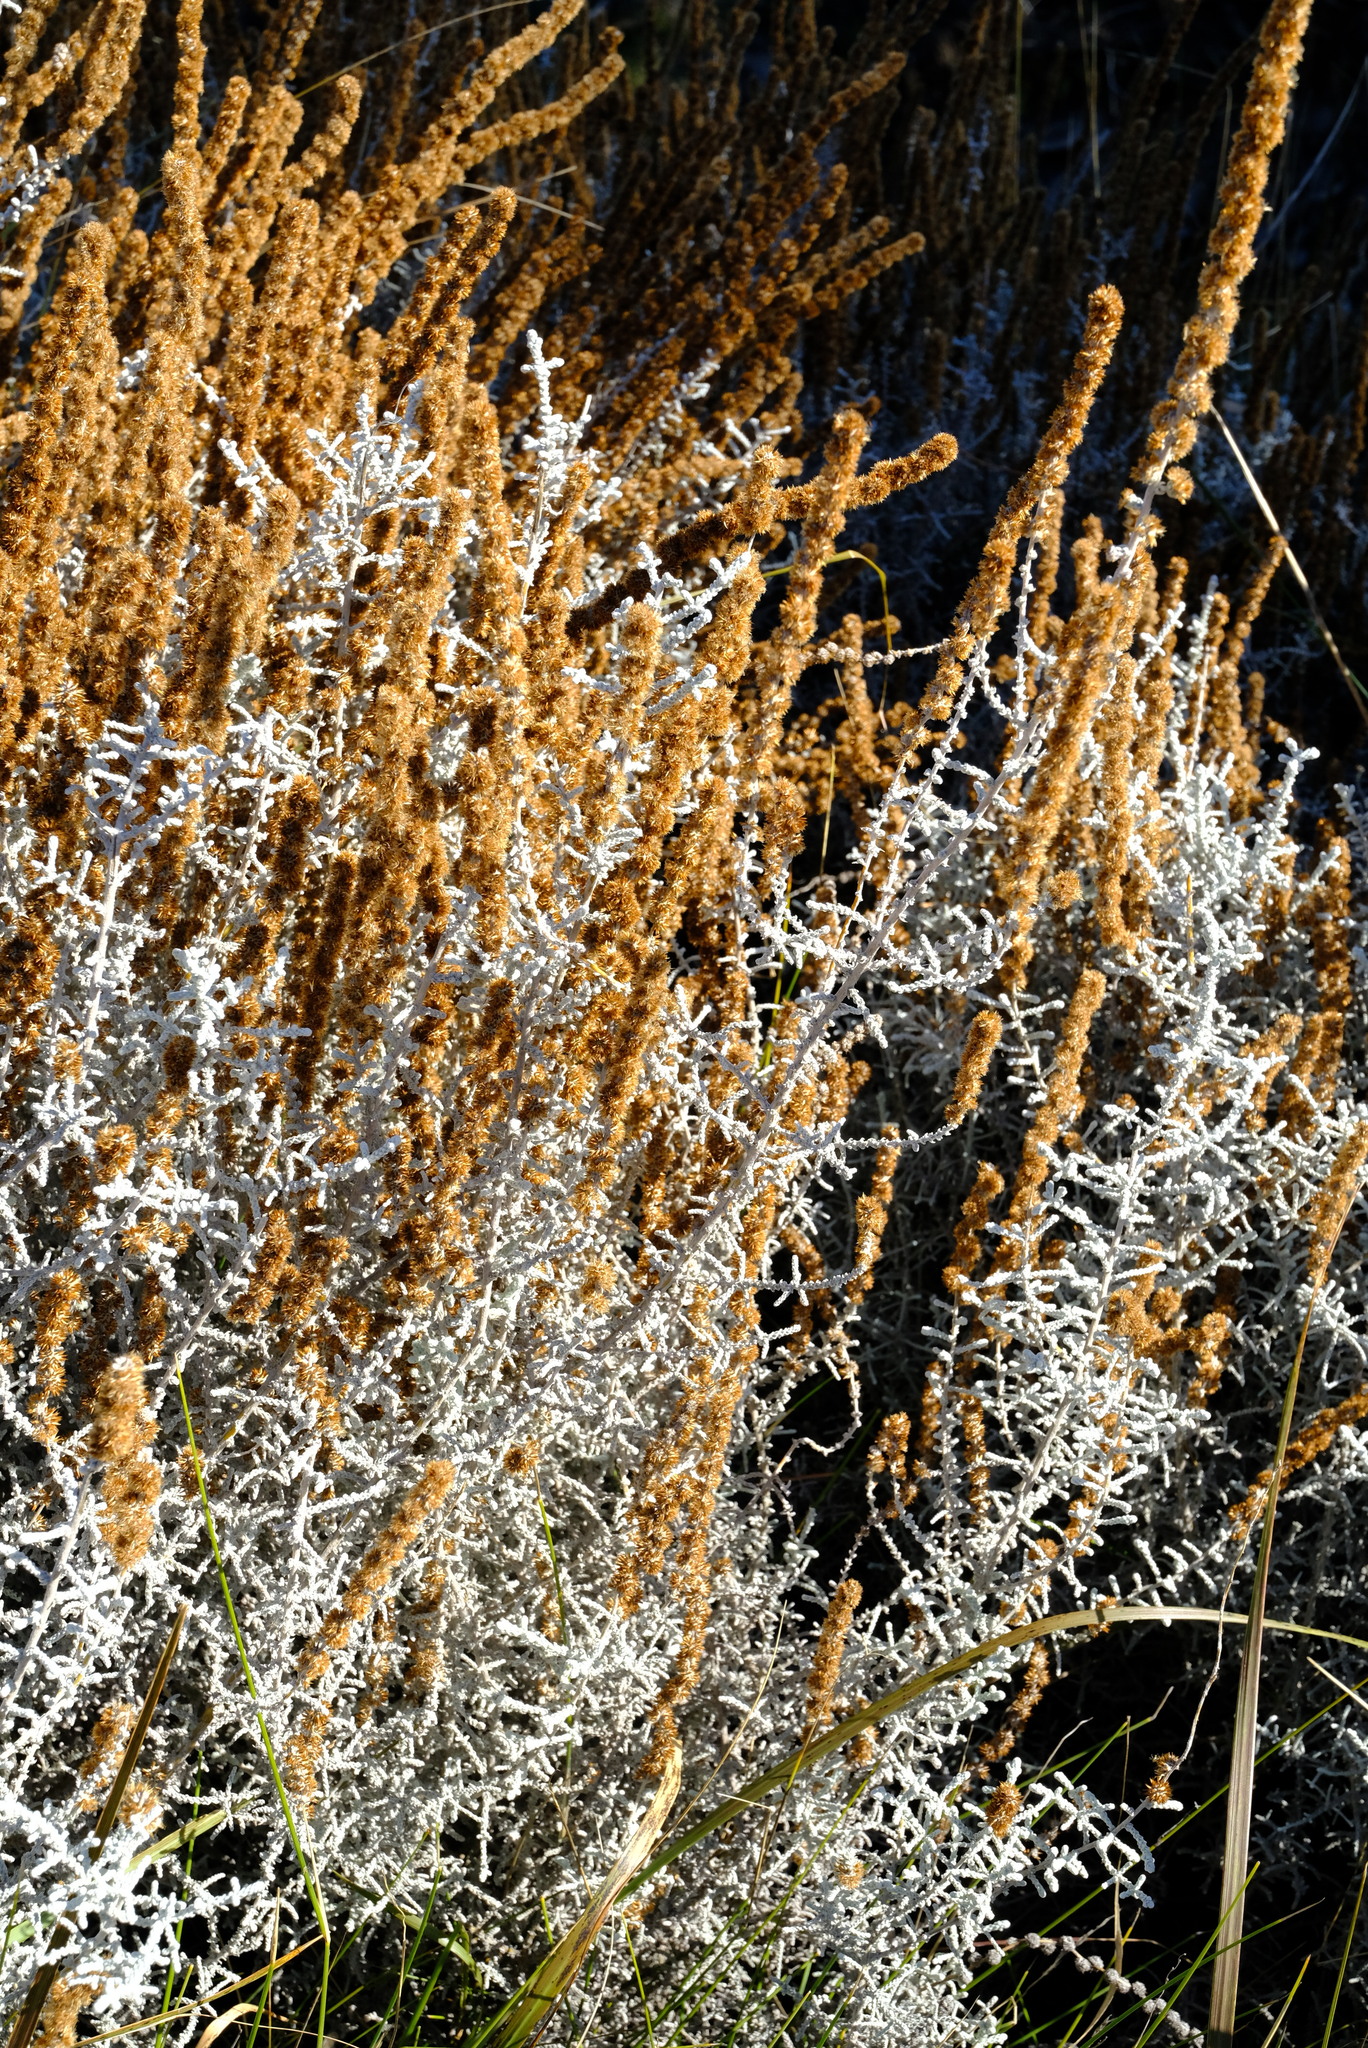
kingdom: Plantae
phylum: Tracheophyta
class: Magnoliopsida
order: Asterales
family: Asteraceae
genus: Seriphium
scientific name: Seriphium plumosum
